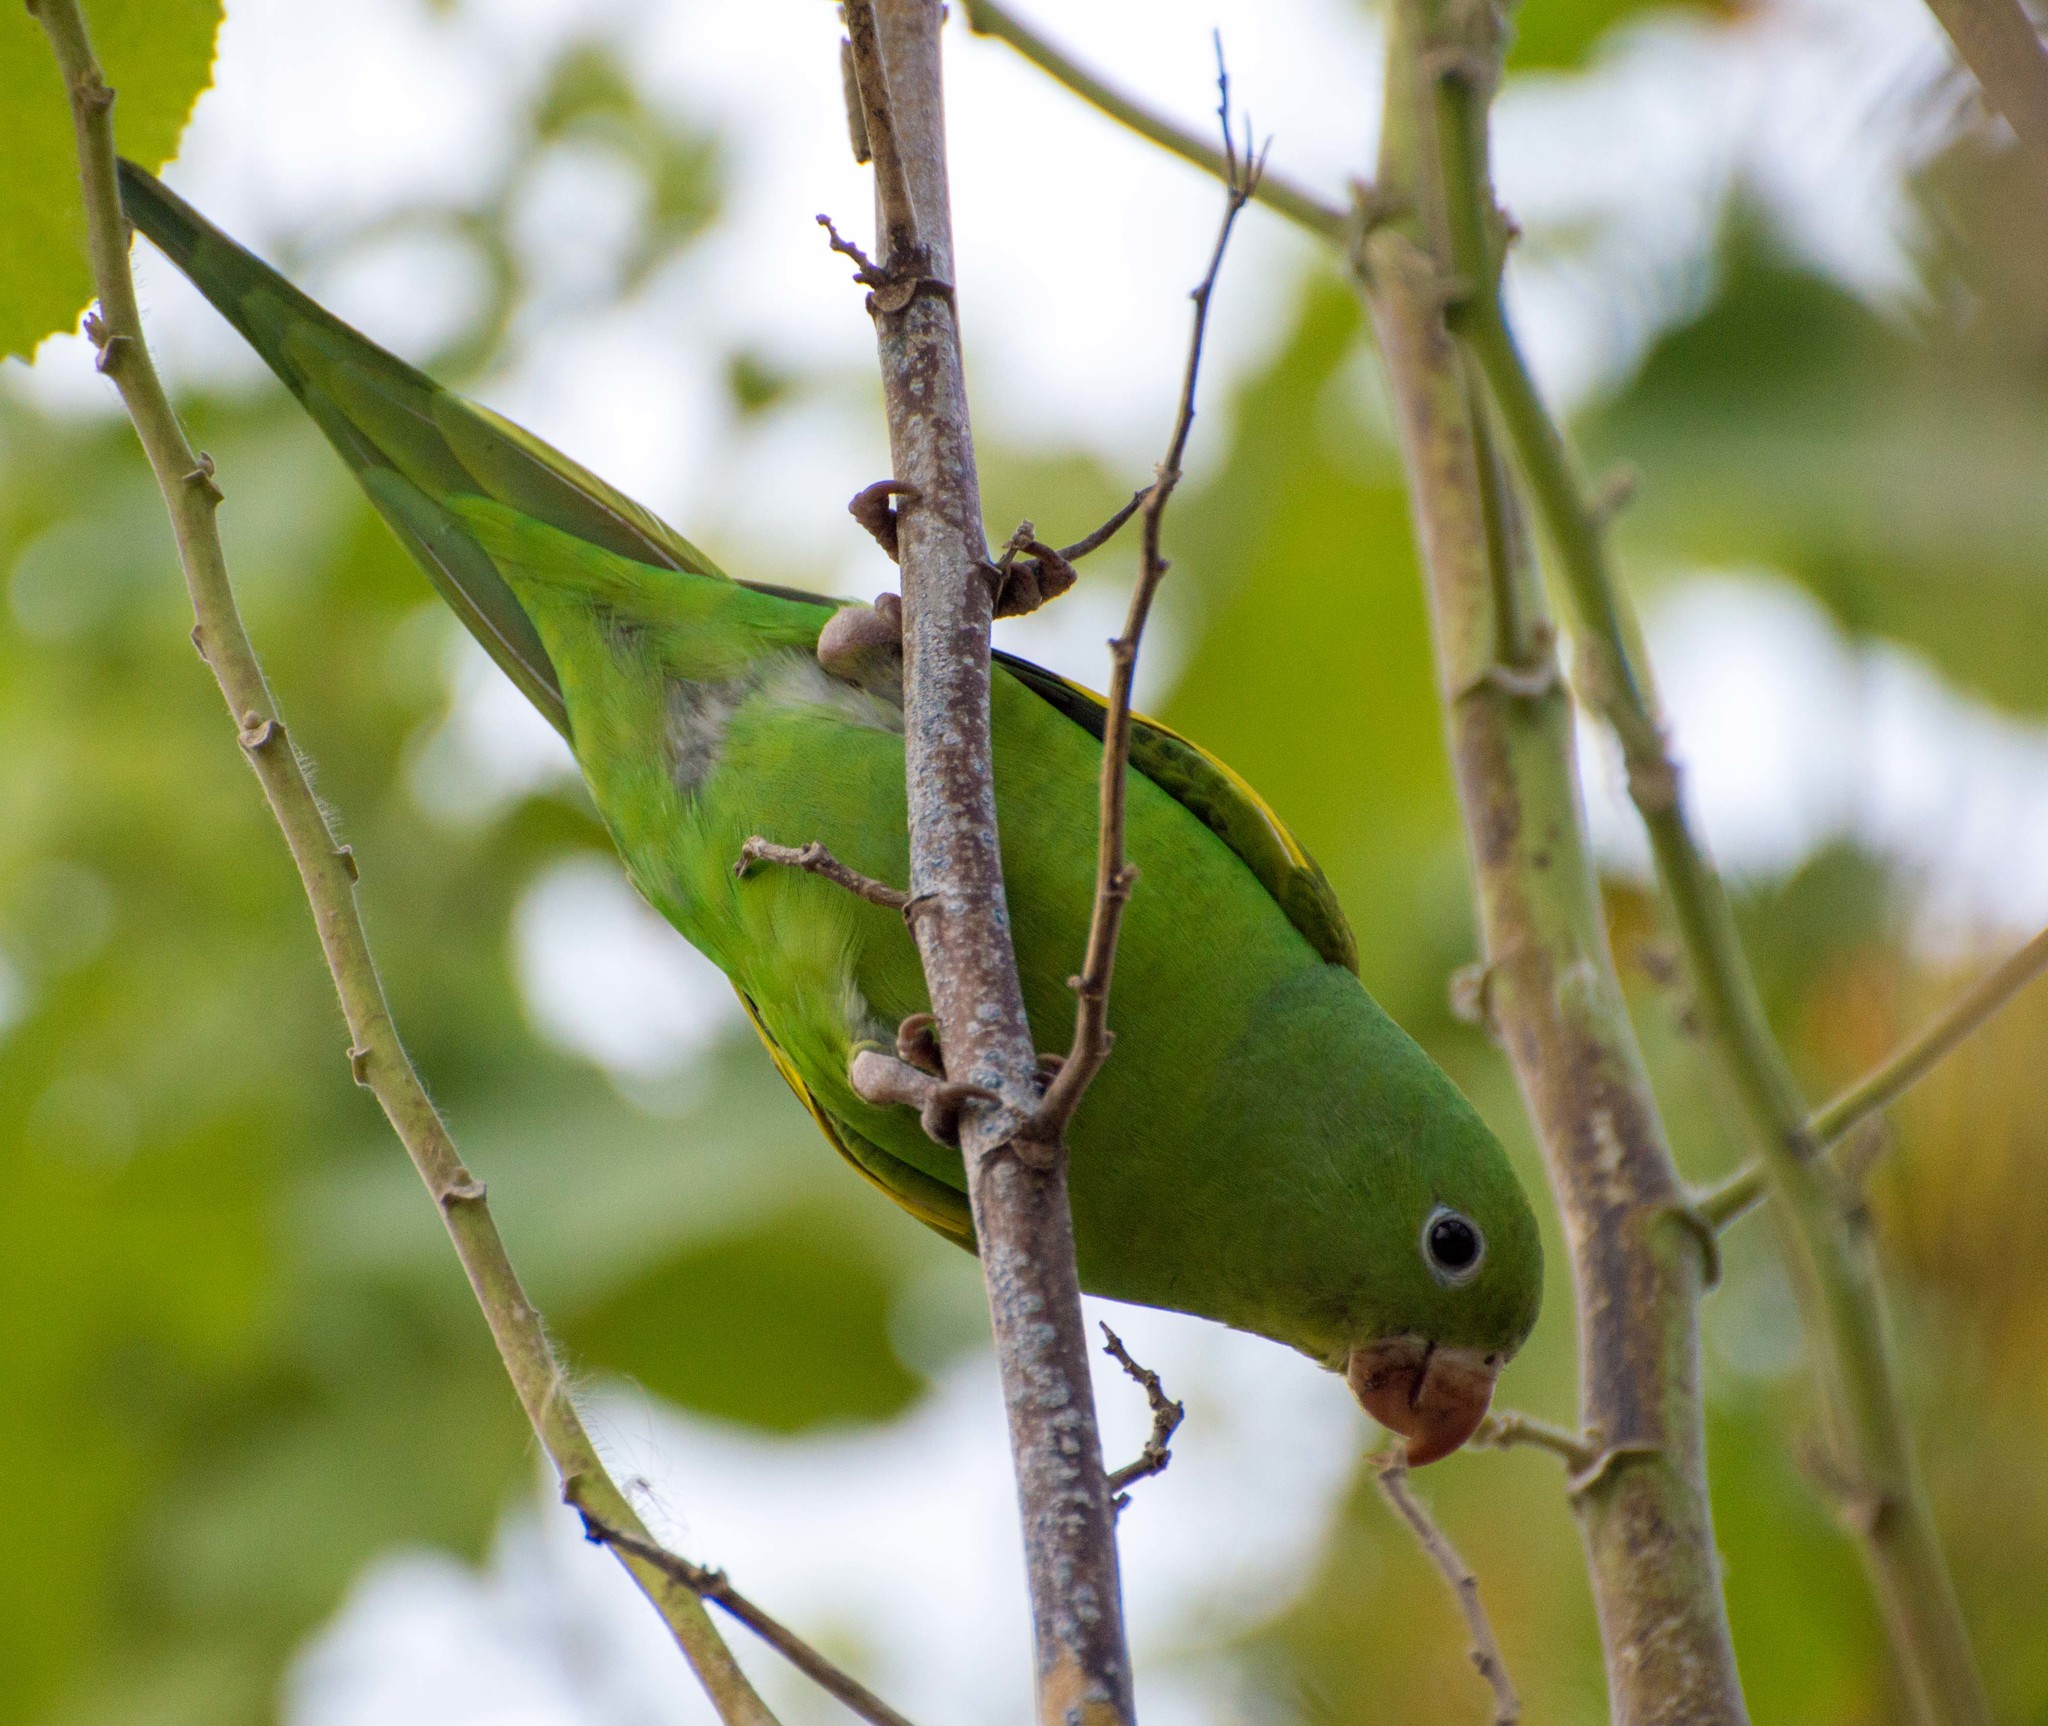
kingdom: Animalia
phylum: Chordata
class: Aves
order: Psittaciformes
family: Psittacidae
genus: Brotogeris
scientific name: Brotogeris chiriri
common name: Yellow-chevroned parakeet
